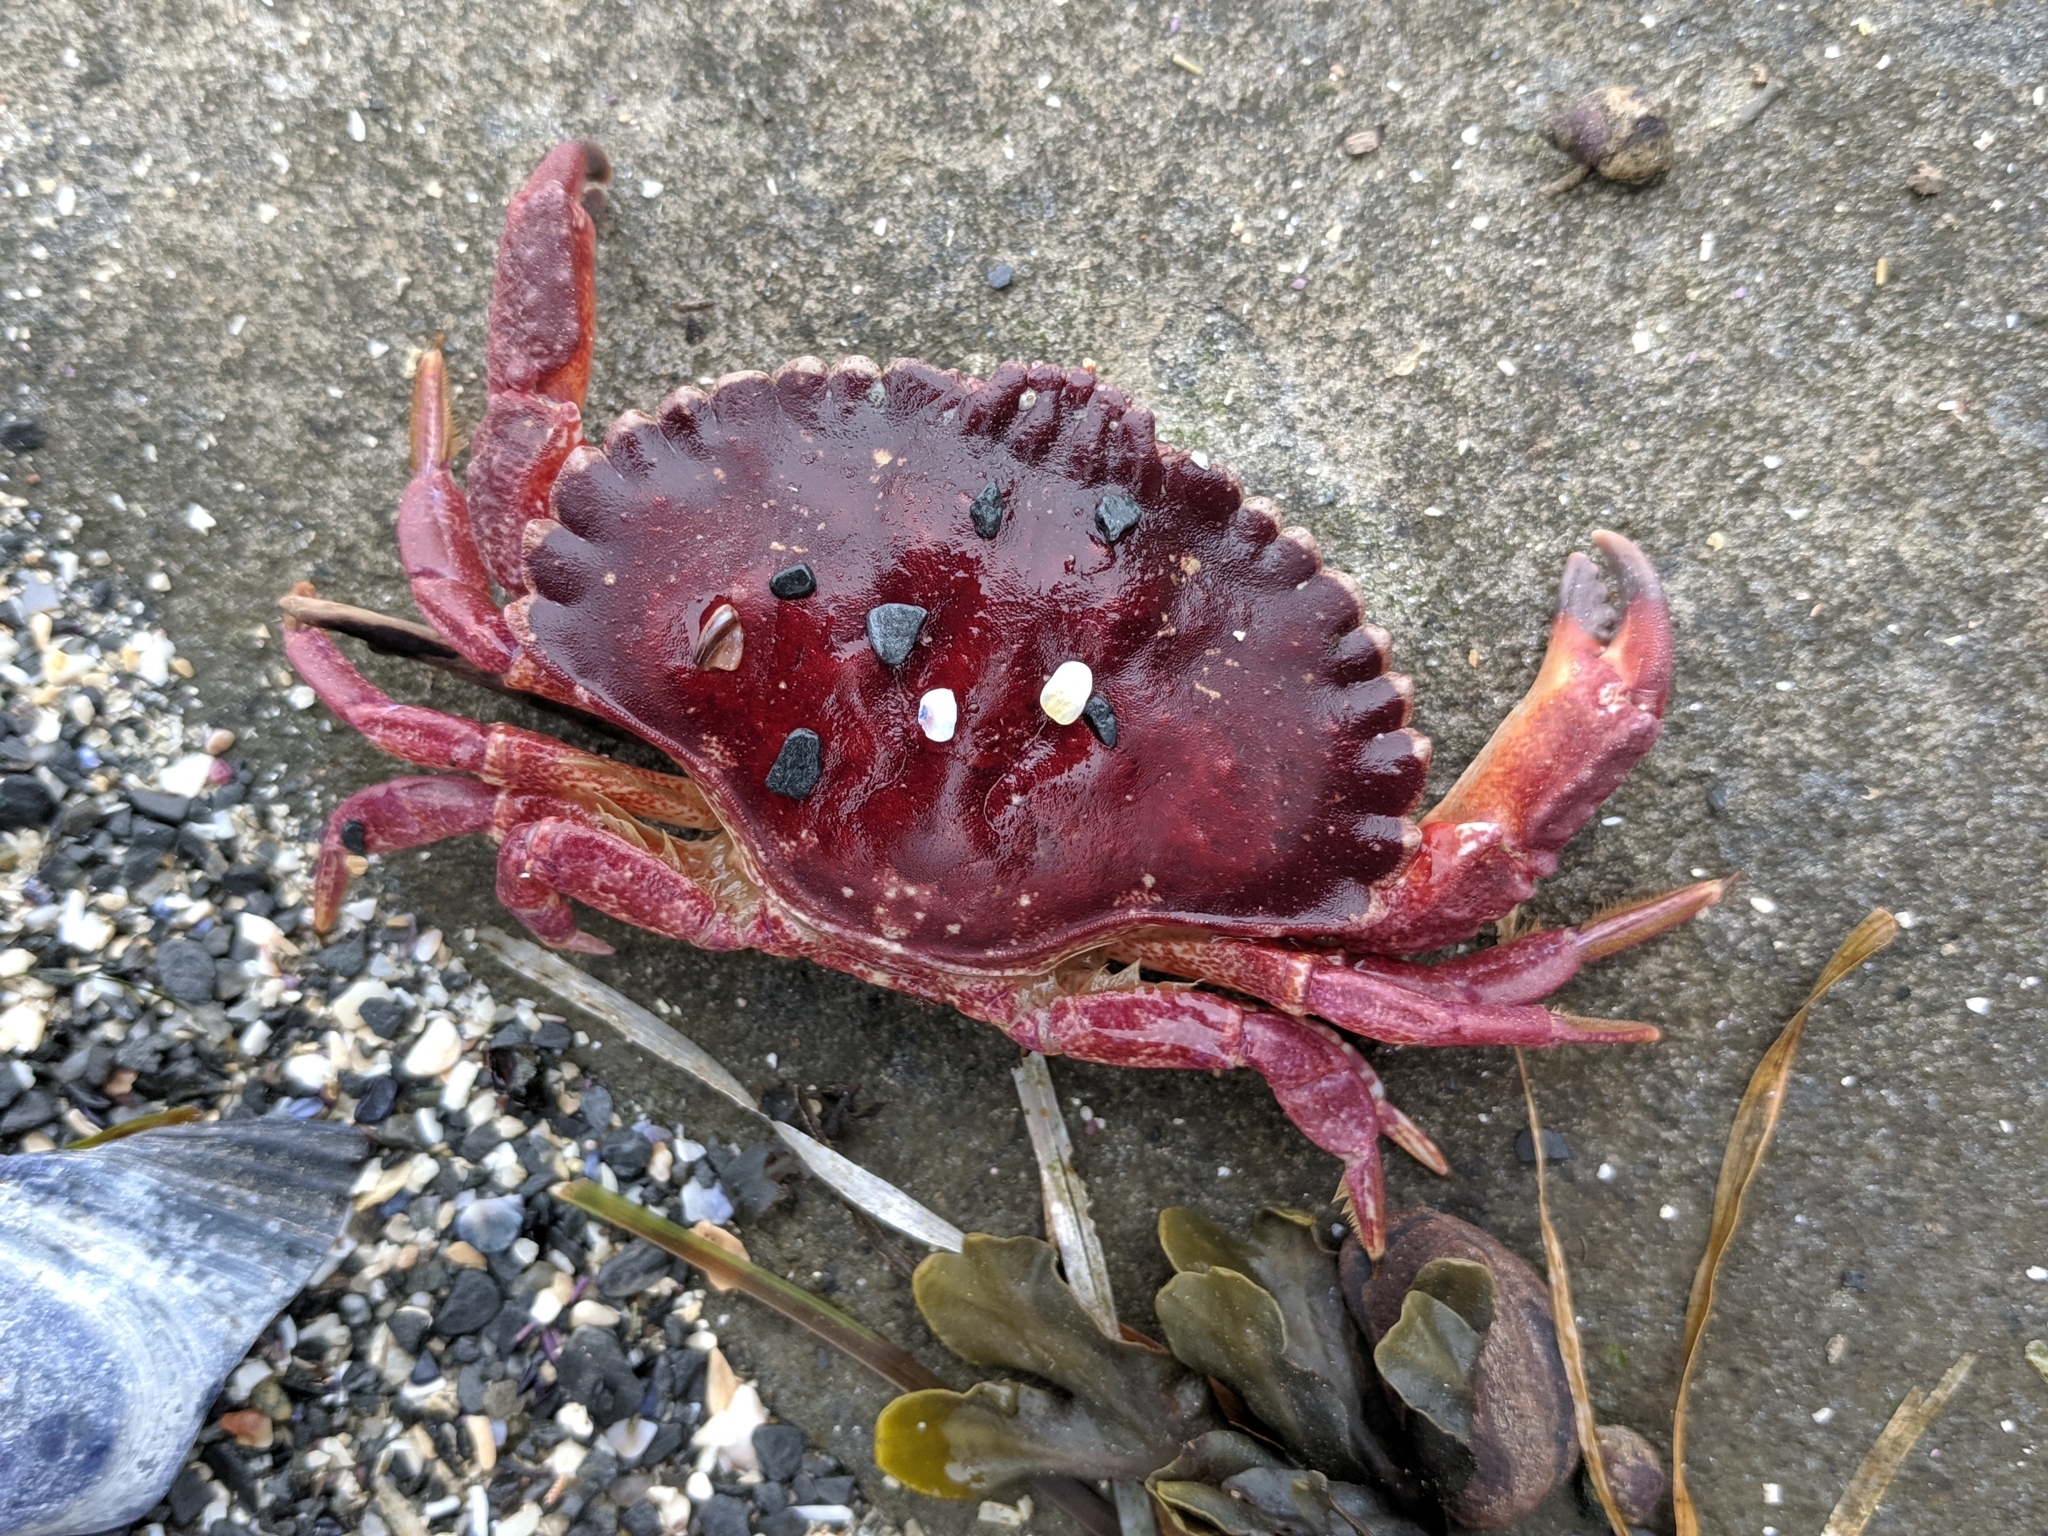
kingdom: Animalia
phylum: Arthropoda
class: Malacostraca
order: Decapoda
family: Cancridae
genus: Cancer
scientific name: Cancer productus
